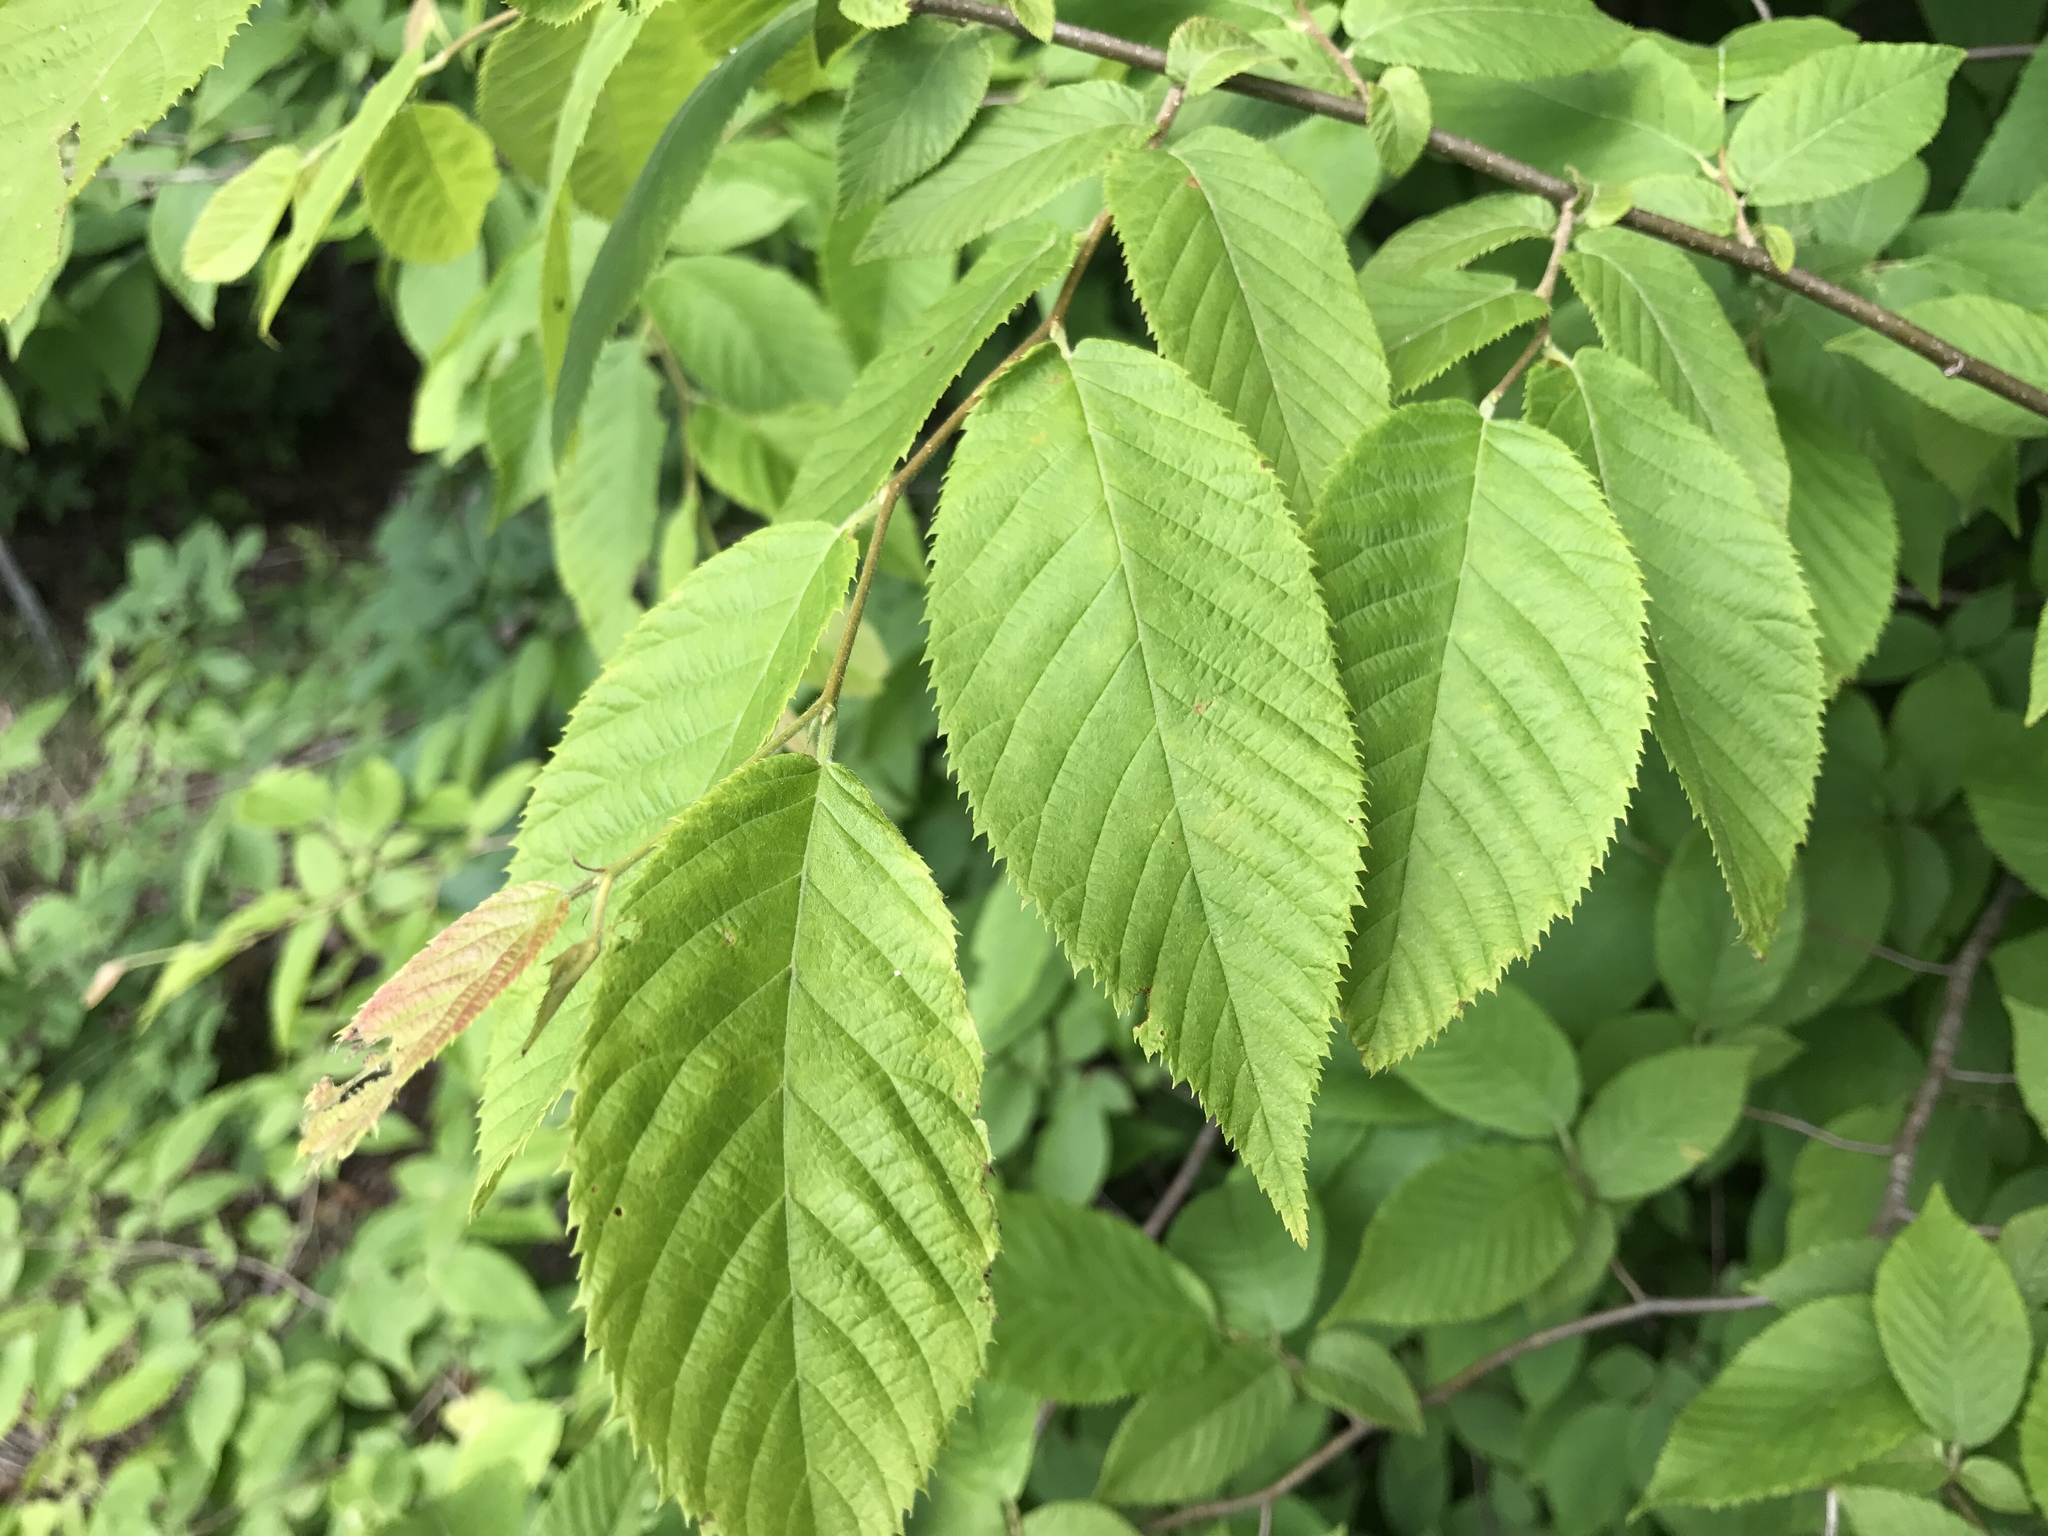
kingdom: Plantae
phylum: Tracheophyta
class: Magnoliopsida
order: Fagales
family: Betulaceae
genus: Ostrya
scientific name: Ostrya virginiana
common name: Ironwood
